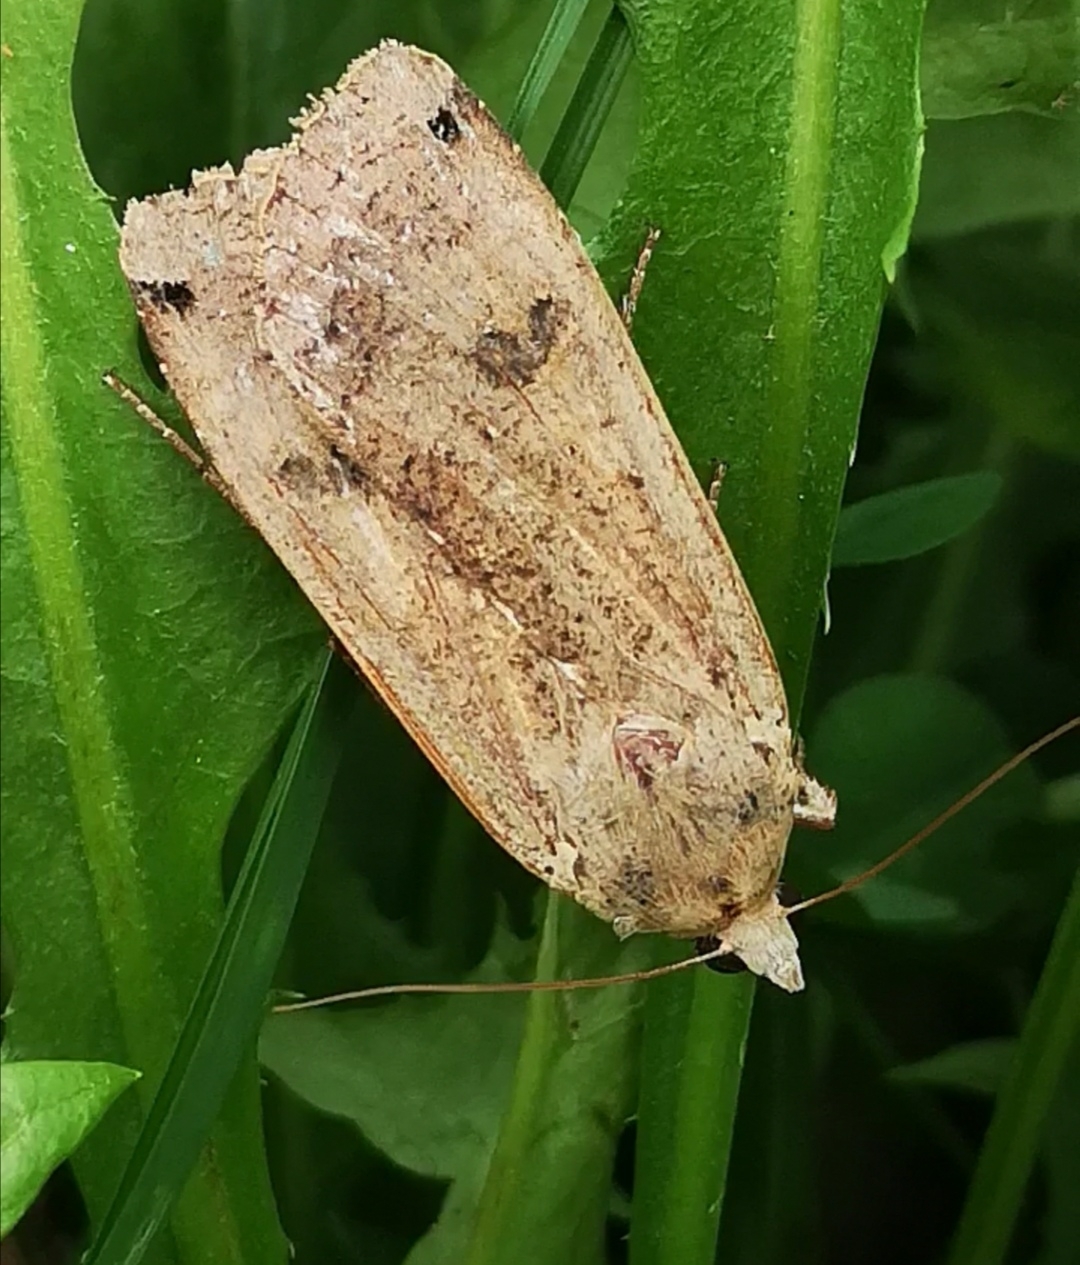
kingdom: Animalia
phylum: Arthropoda
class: Insecta
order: Lepidoptera
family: Noctuidae
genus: Noctua
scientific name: Noctua pronuba
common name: Large yellow underwing
